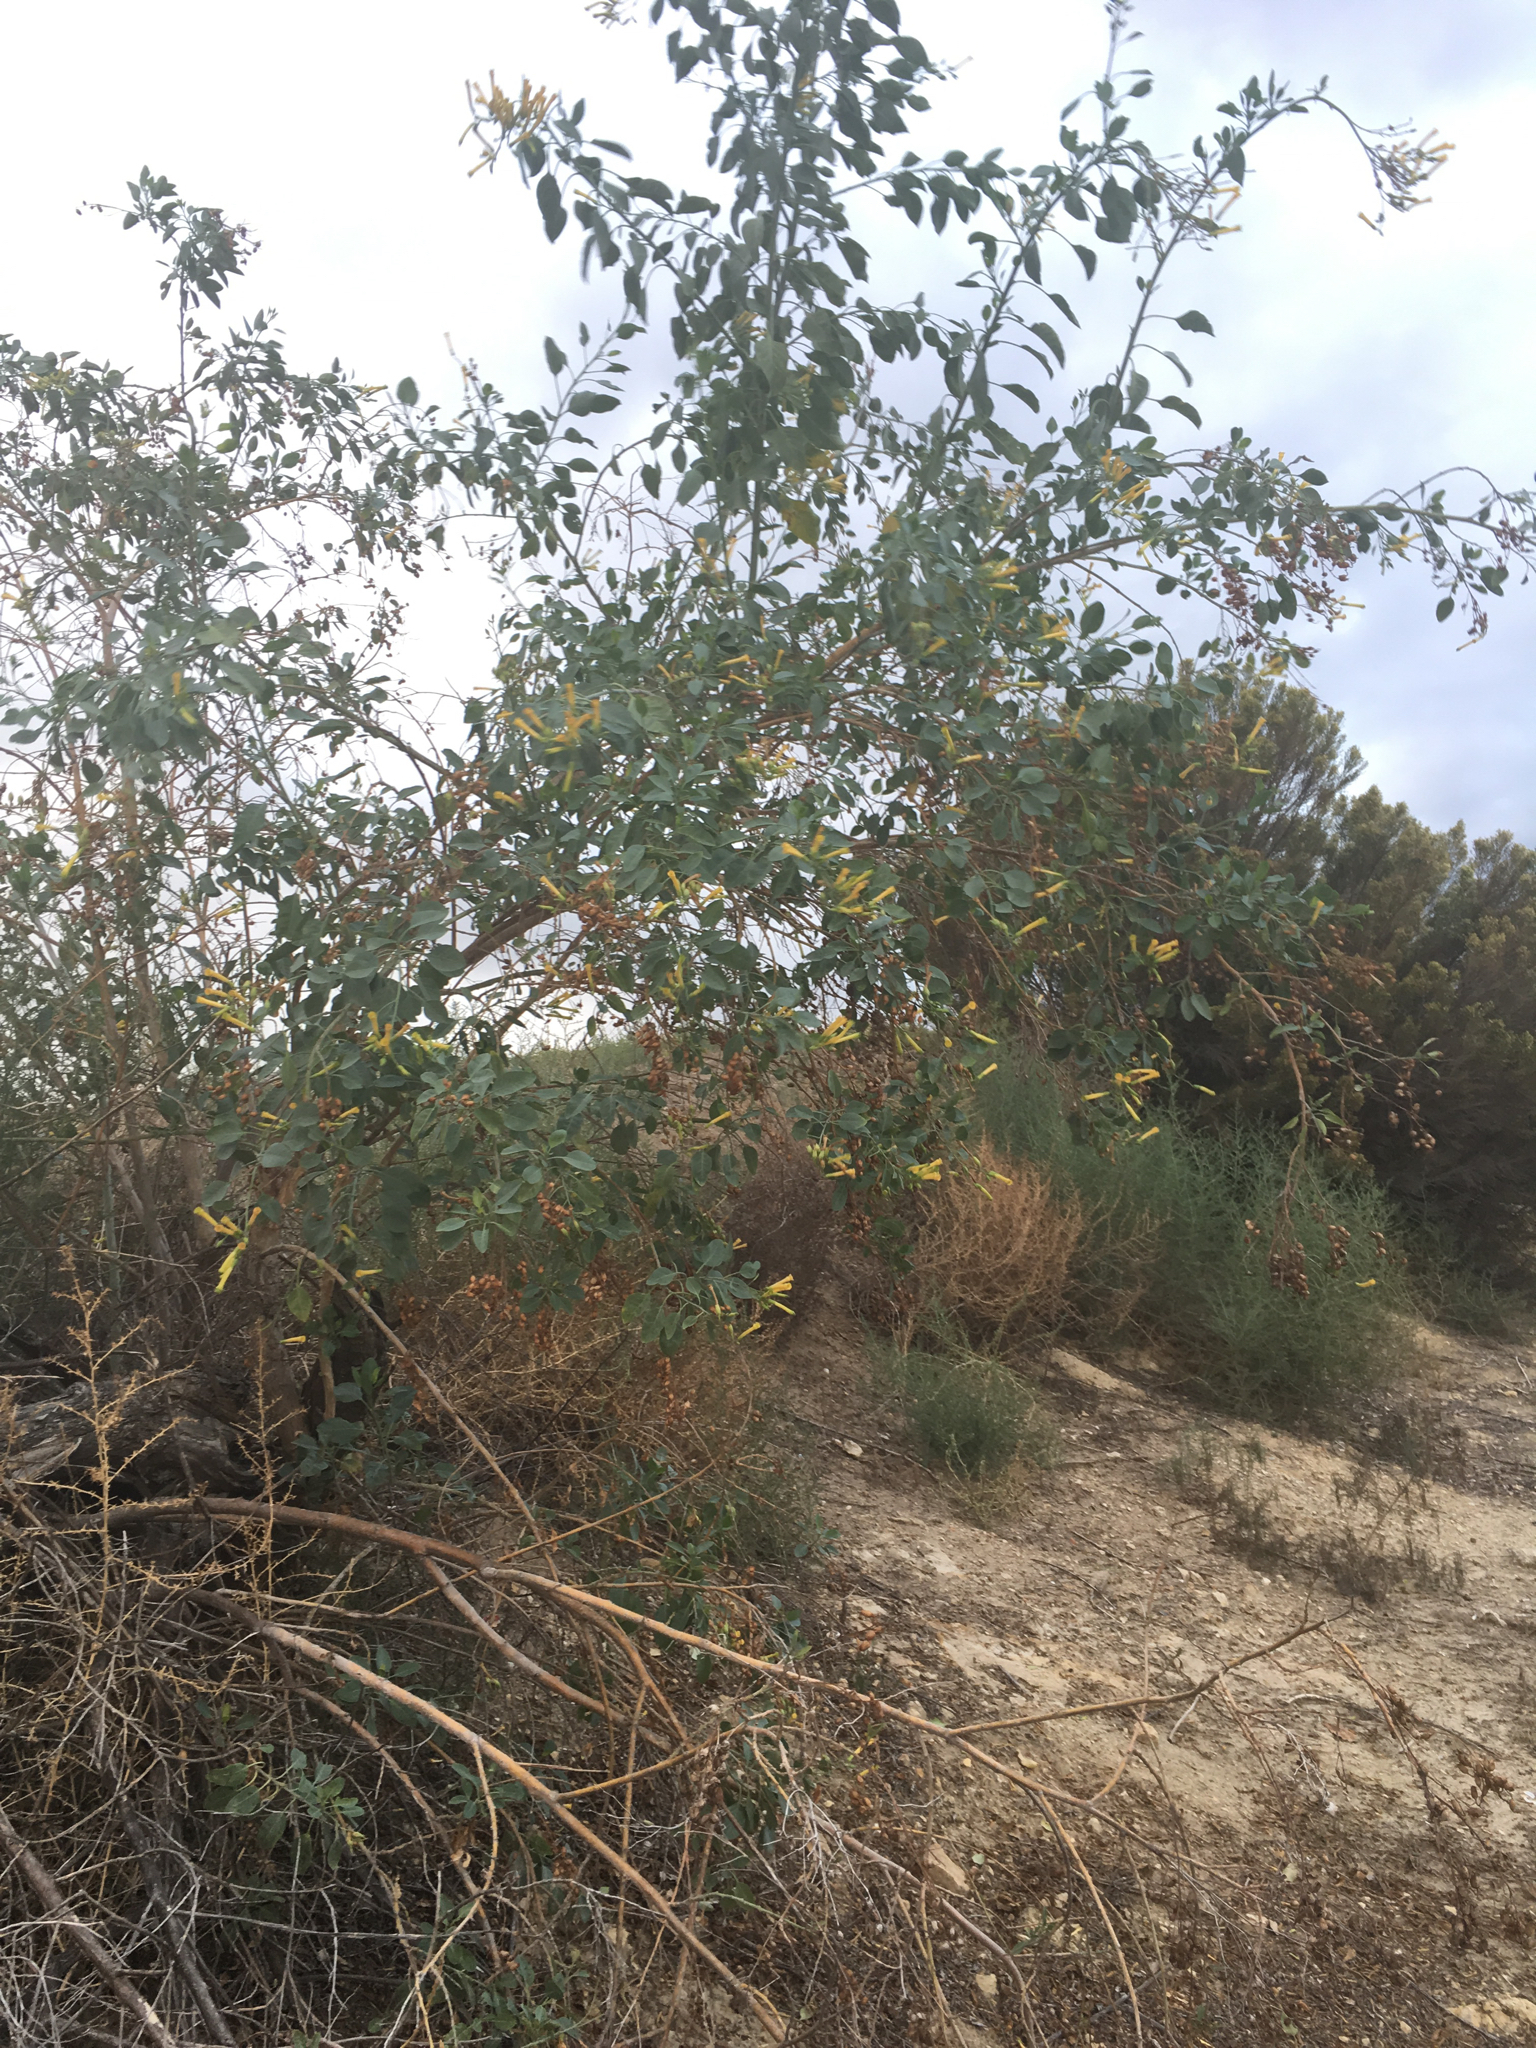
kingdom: Plantae
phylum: Tracheophyta
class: Magnoliopsida
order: Solanales
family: Solanaceae
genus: Nicotiana
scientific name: Nicotiana glauca
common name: Tree tobacco
